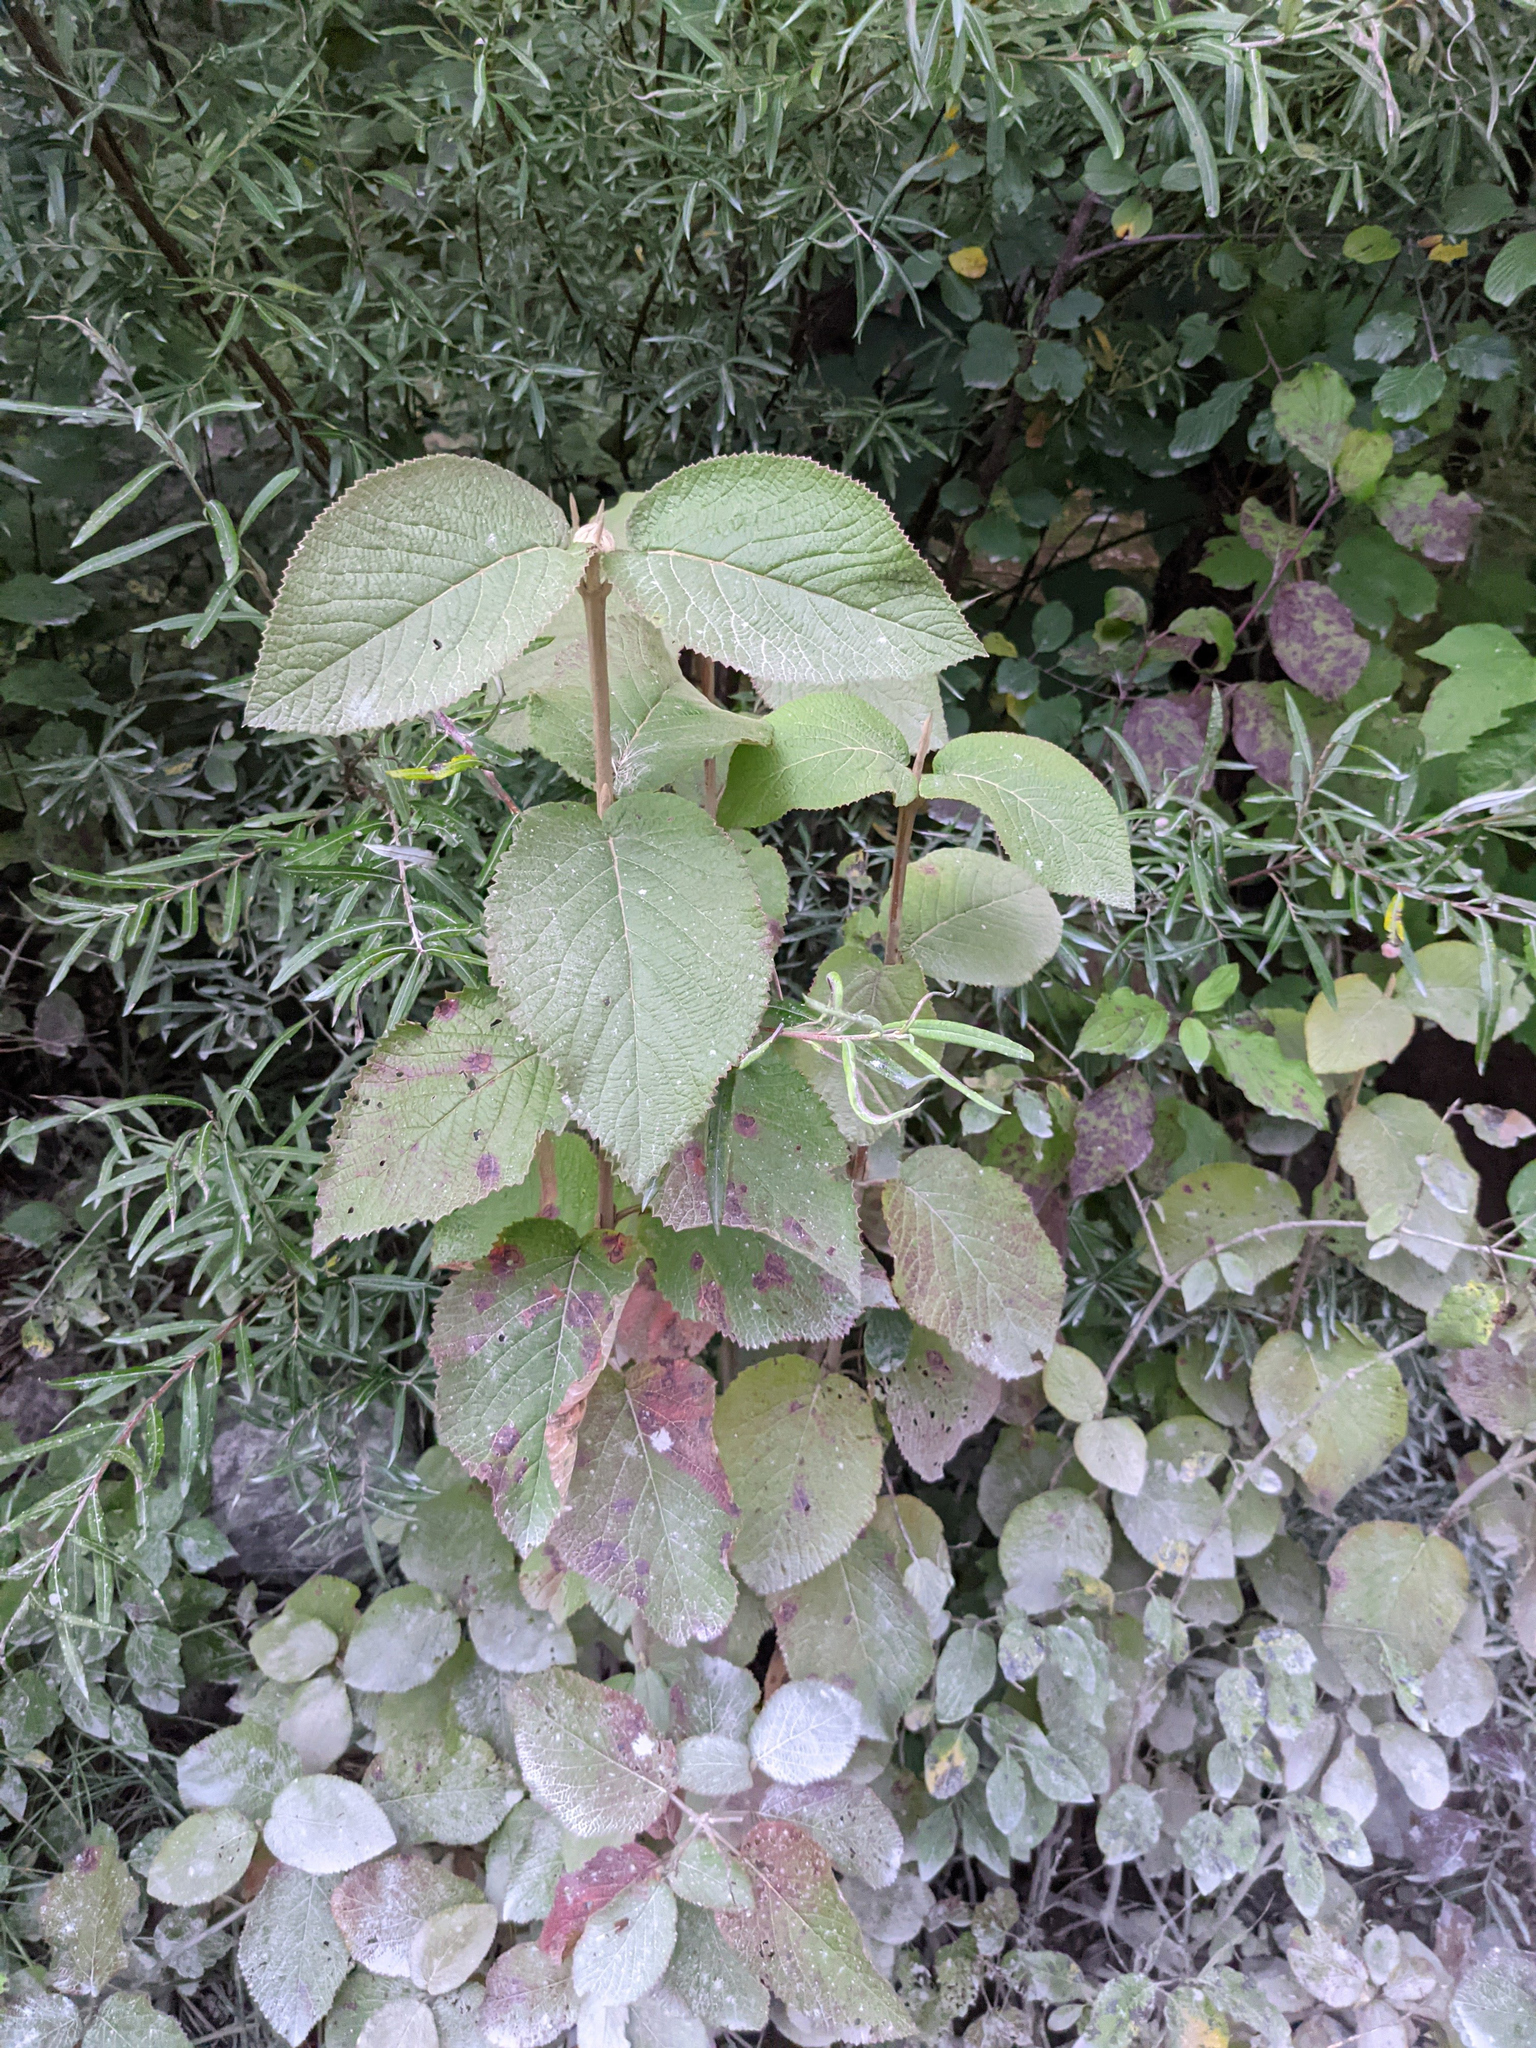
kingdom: Plantae
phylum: Tracheophyta
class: Magnoliopsida
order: Dipsacales
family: Viburnaceae
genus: Viburnum
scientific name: Viburnum lantana
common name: Wayfaring tree
